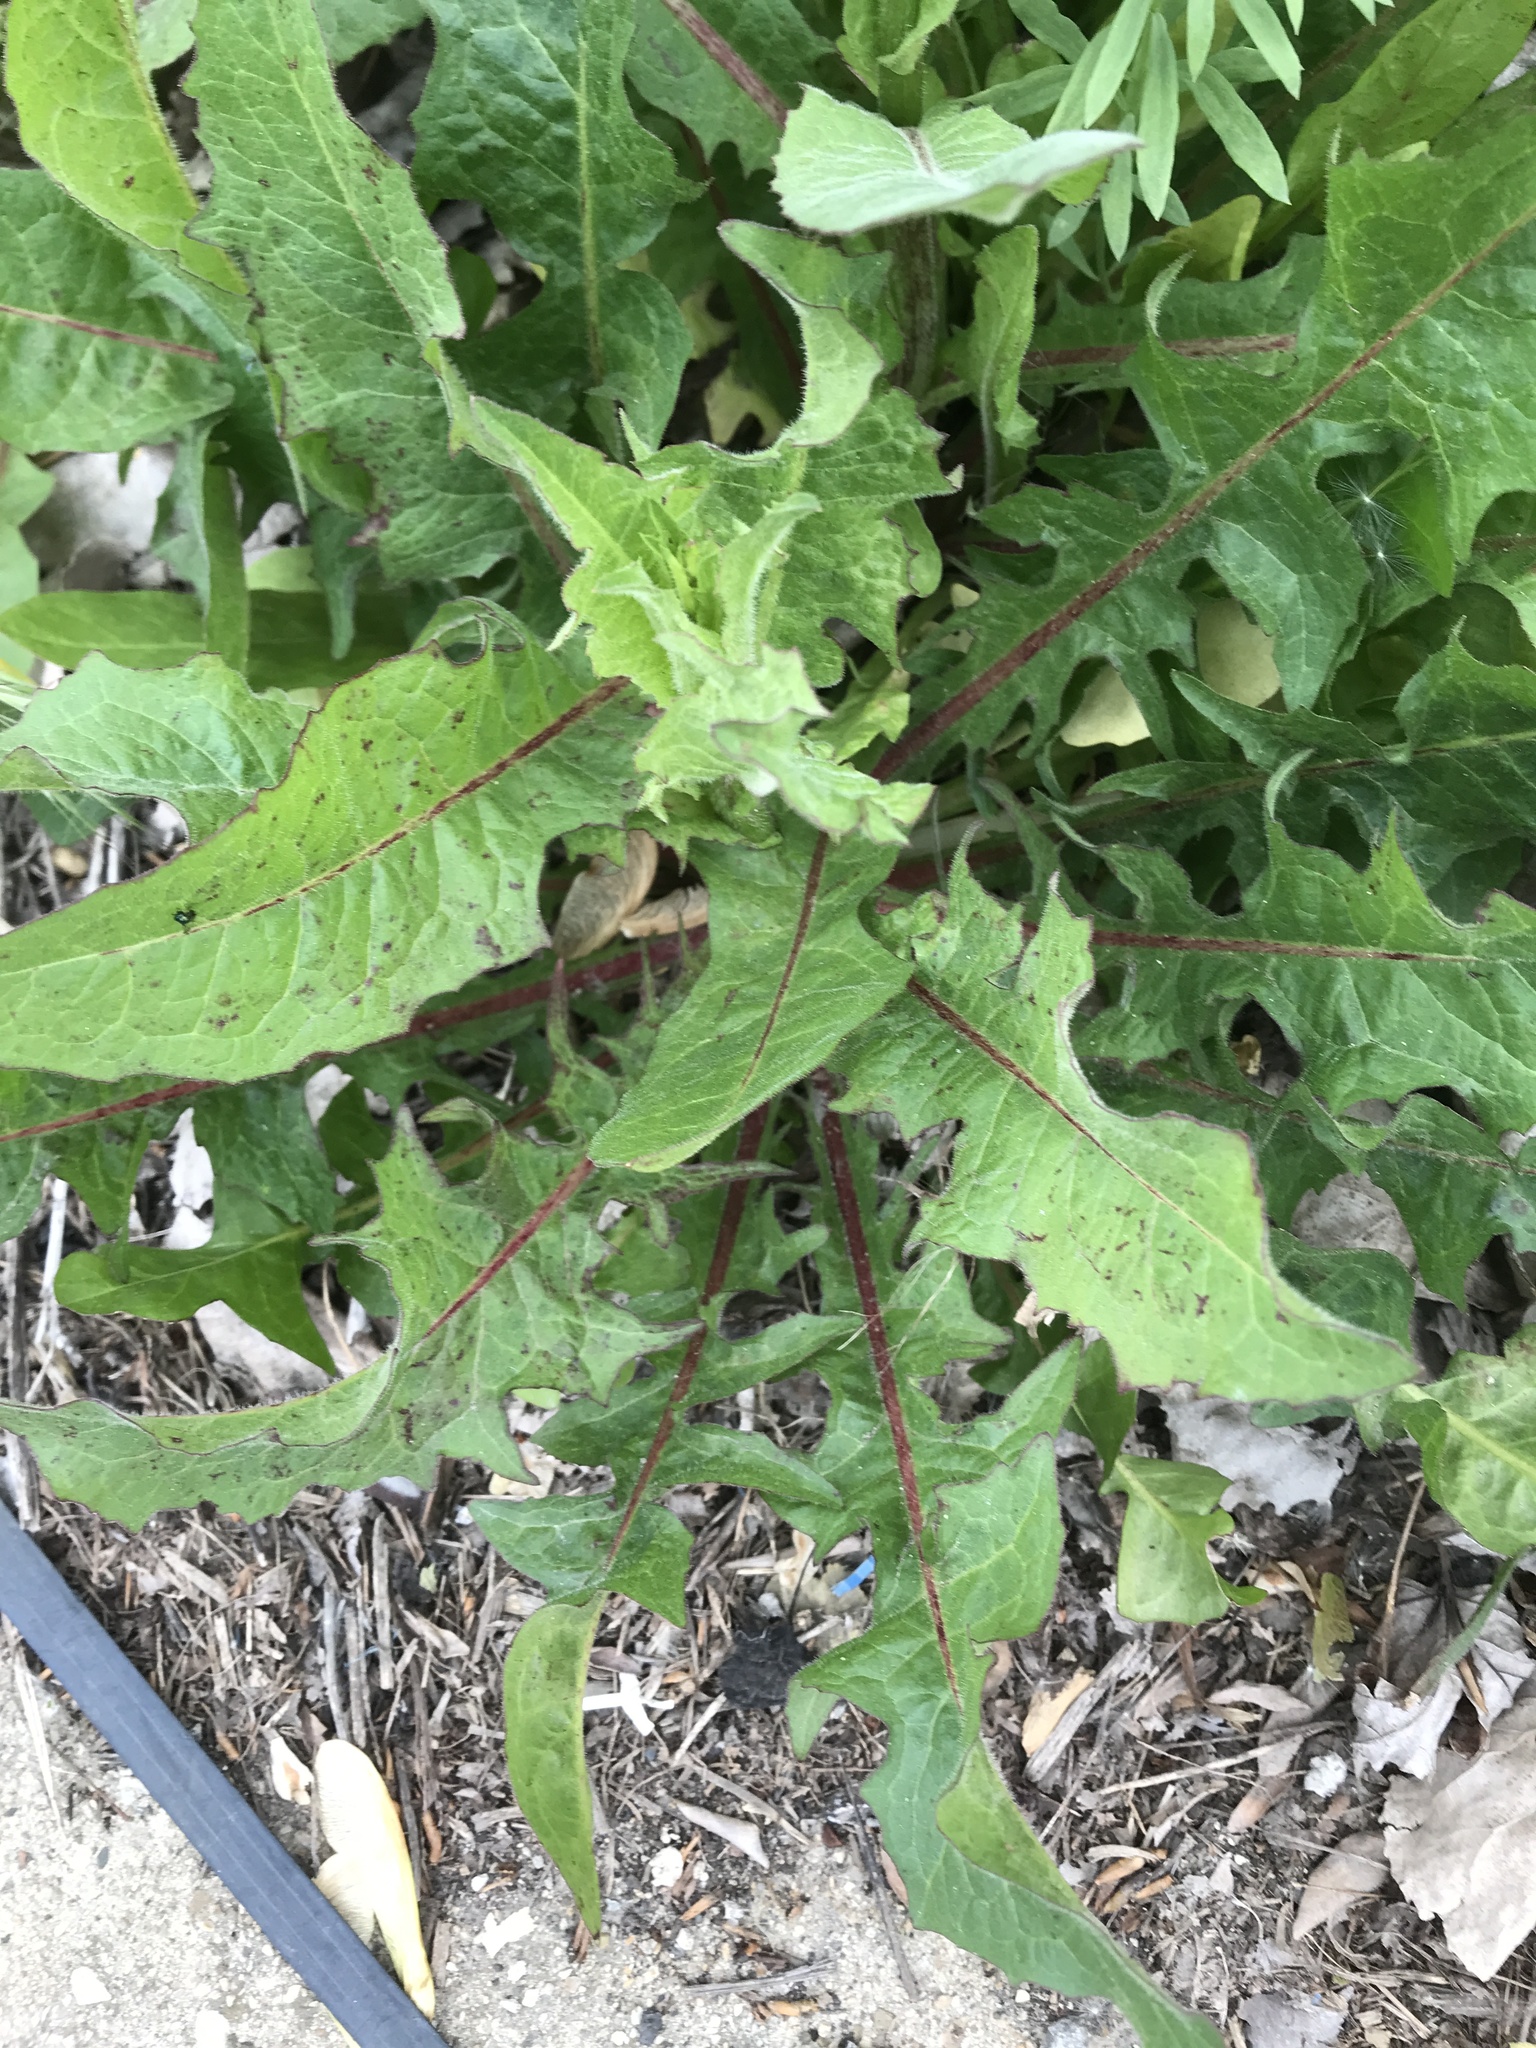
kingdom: Plantae
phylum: Tracheophyta
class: Magnoliopsida
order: Asterales
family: Asteraceae
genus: Taraxacum
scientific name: Taraxacum officinale
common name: Common dandelion
